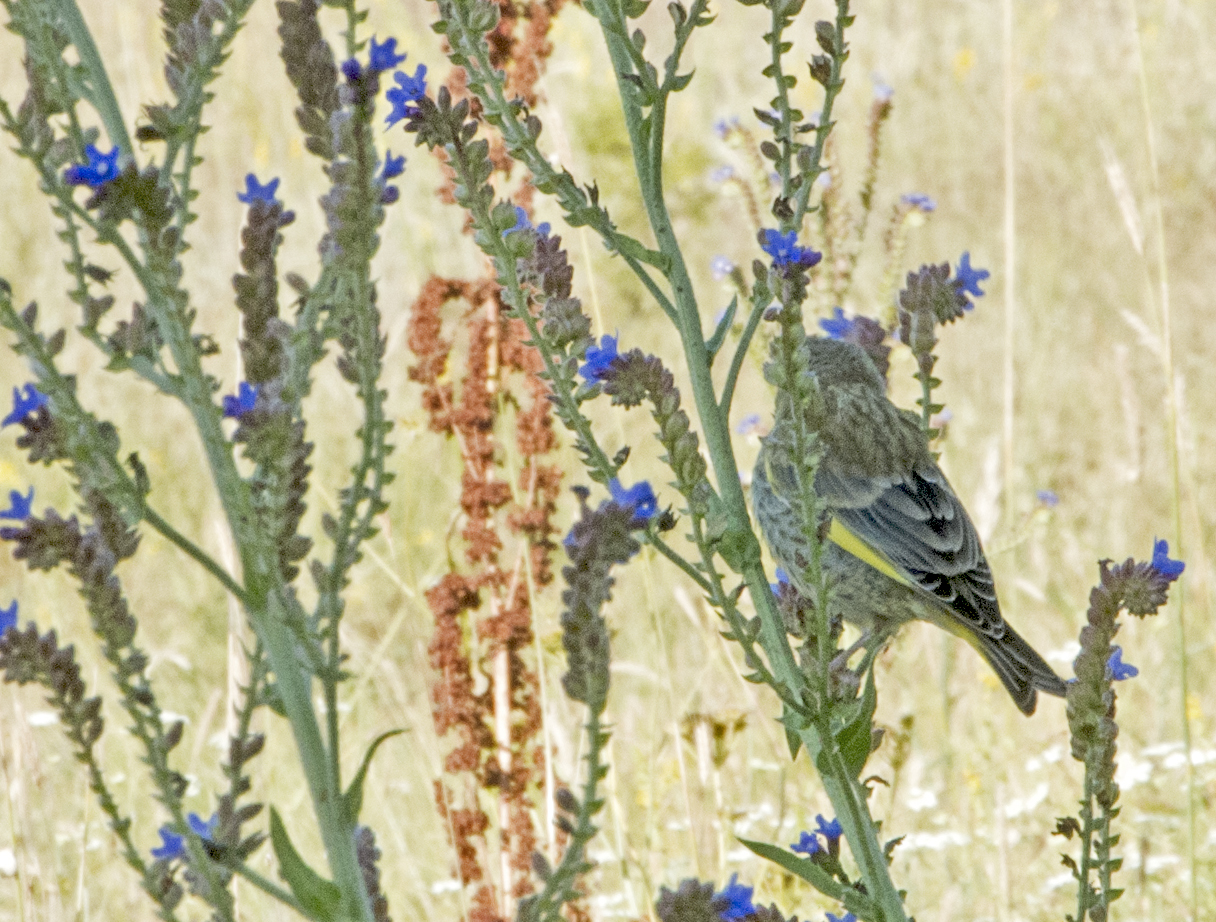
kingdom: Plantae
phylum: Tracheophyta
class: Liliopsida
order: Poales
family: Poaceae
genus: Chloris
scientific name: Chloris chloris
